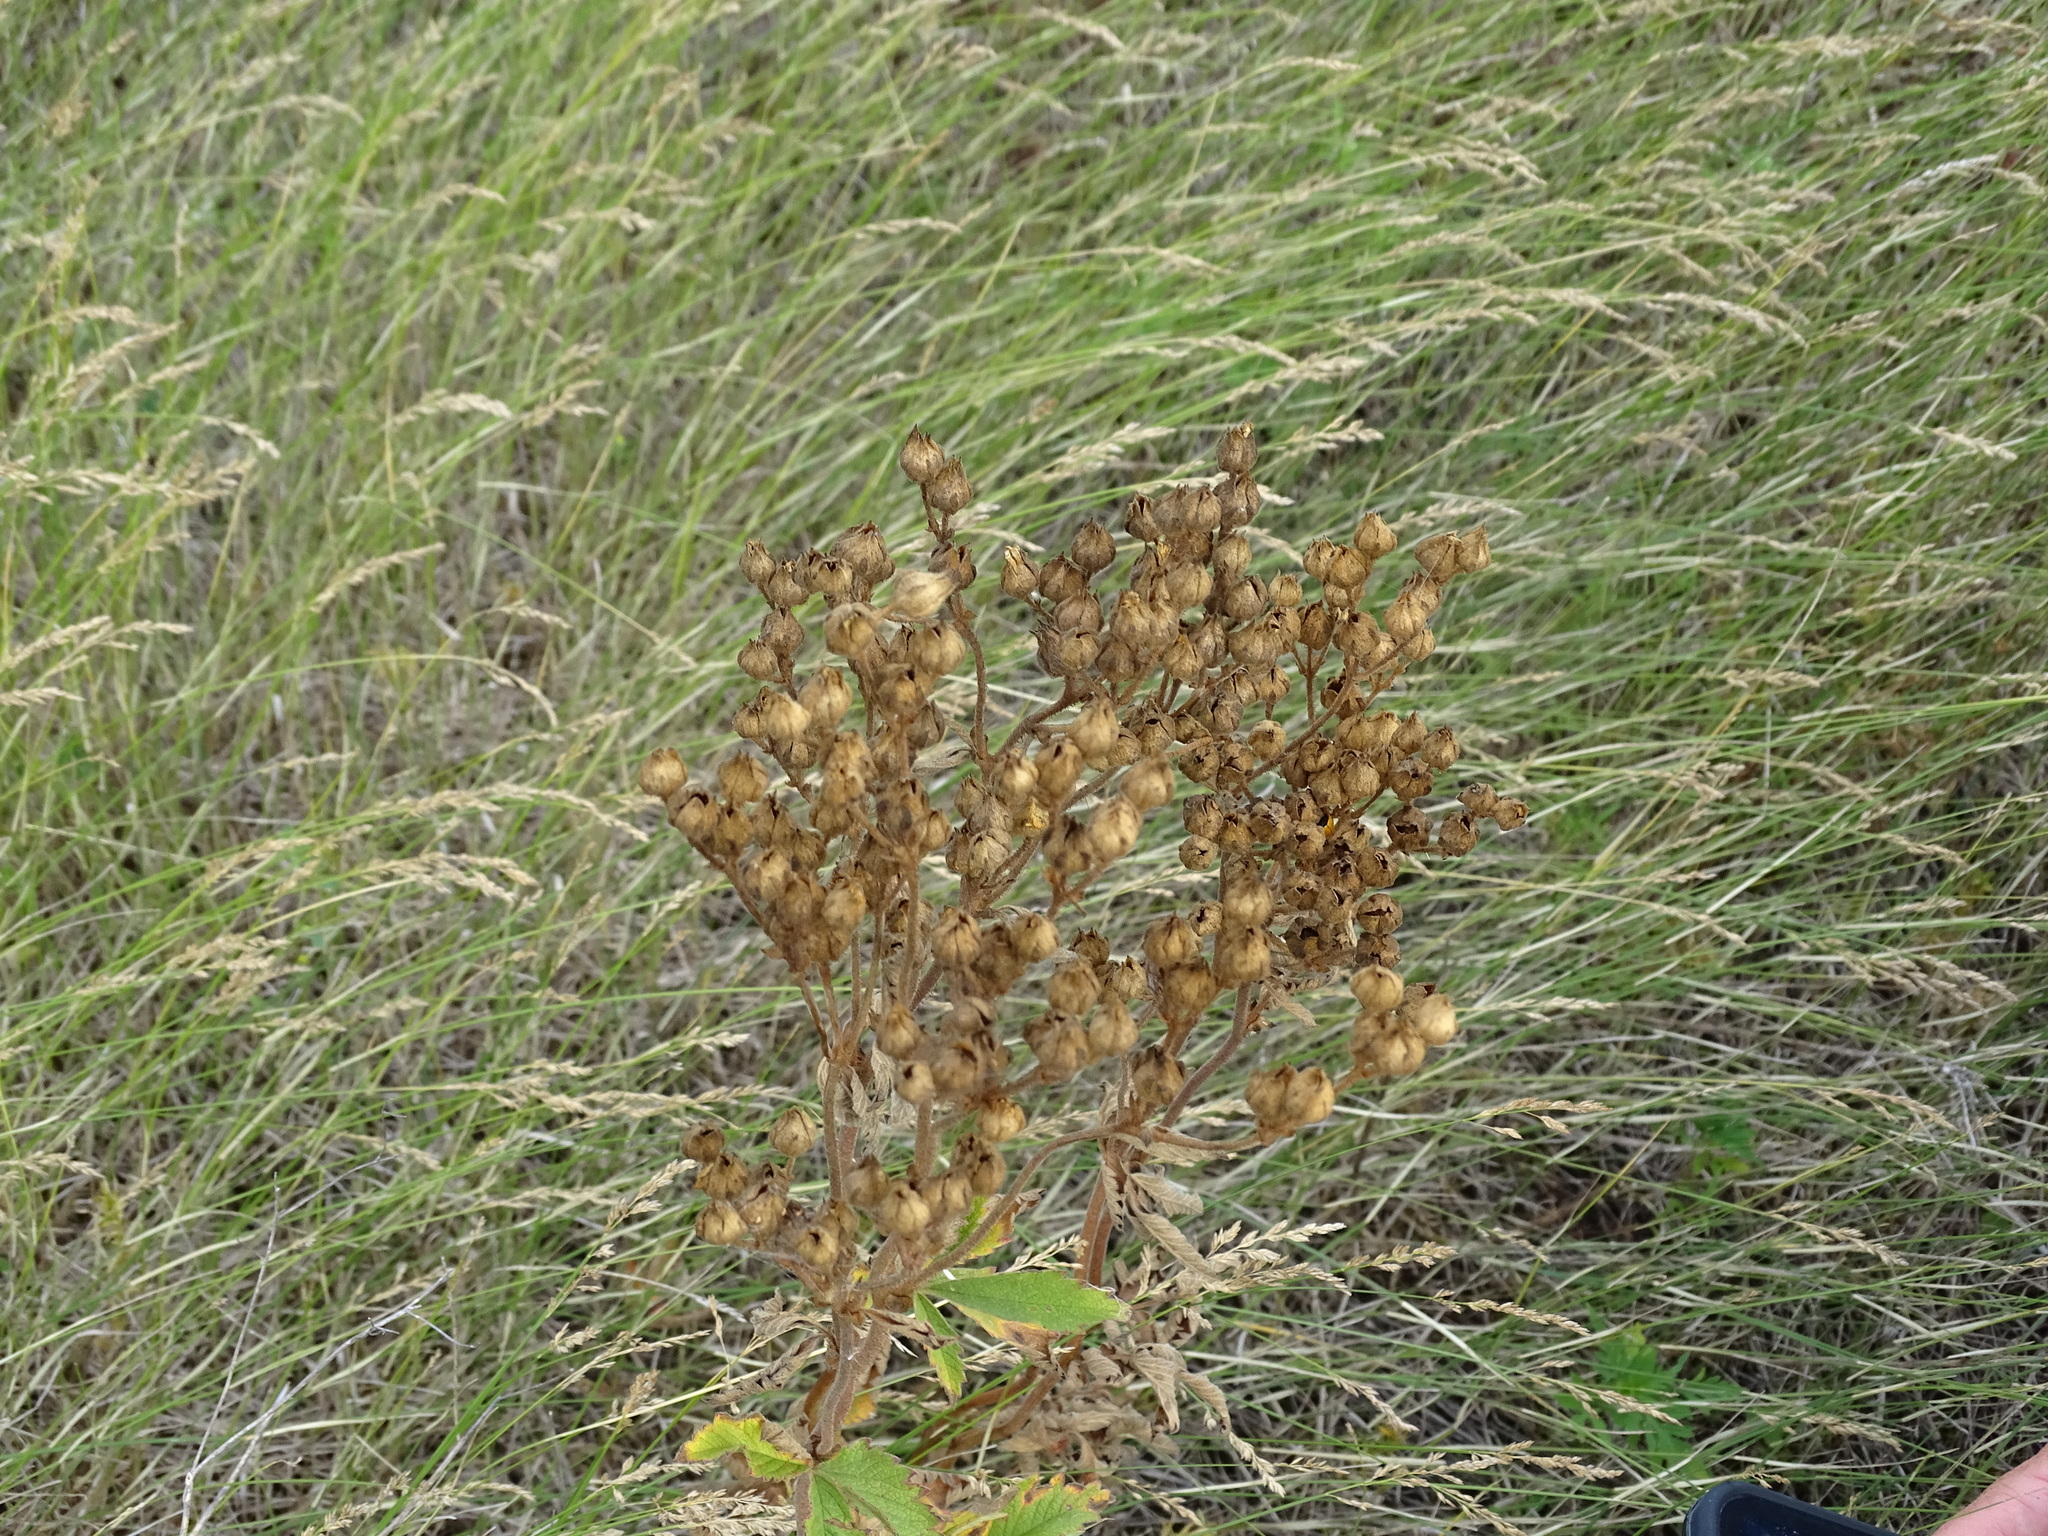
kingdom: Plantae
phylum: Tracheophyta
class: Magnoliopsida
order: Rosales
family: Rosaceae
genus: Drymocallis
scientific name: Drymocallis arguta
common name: Tall cinquefoil
